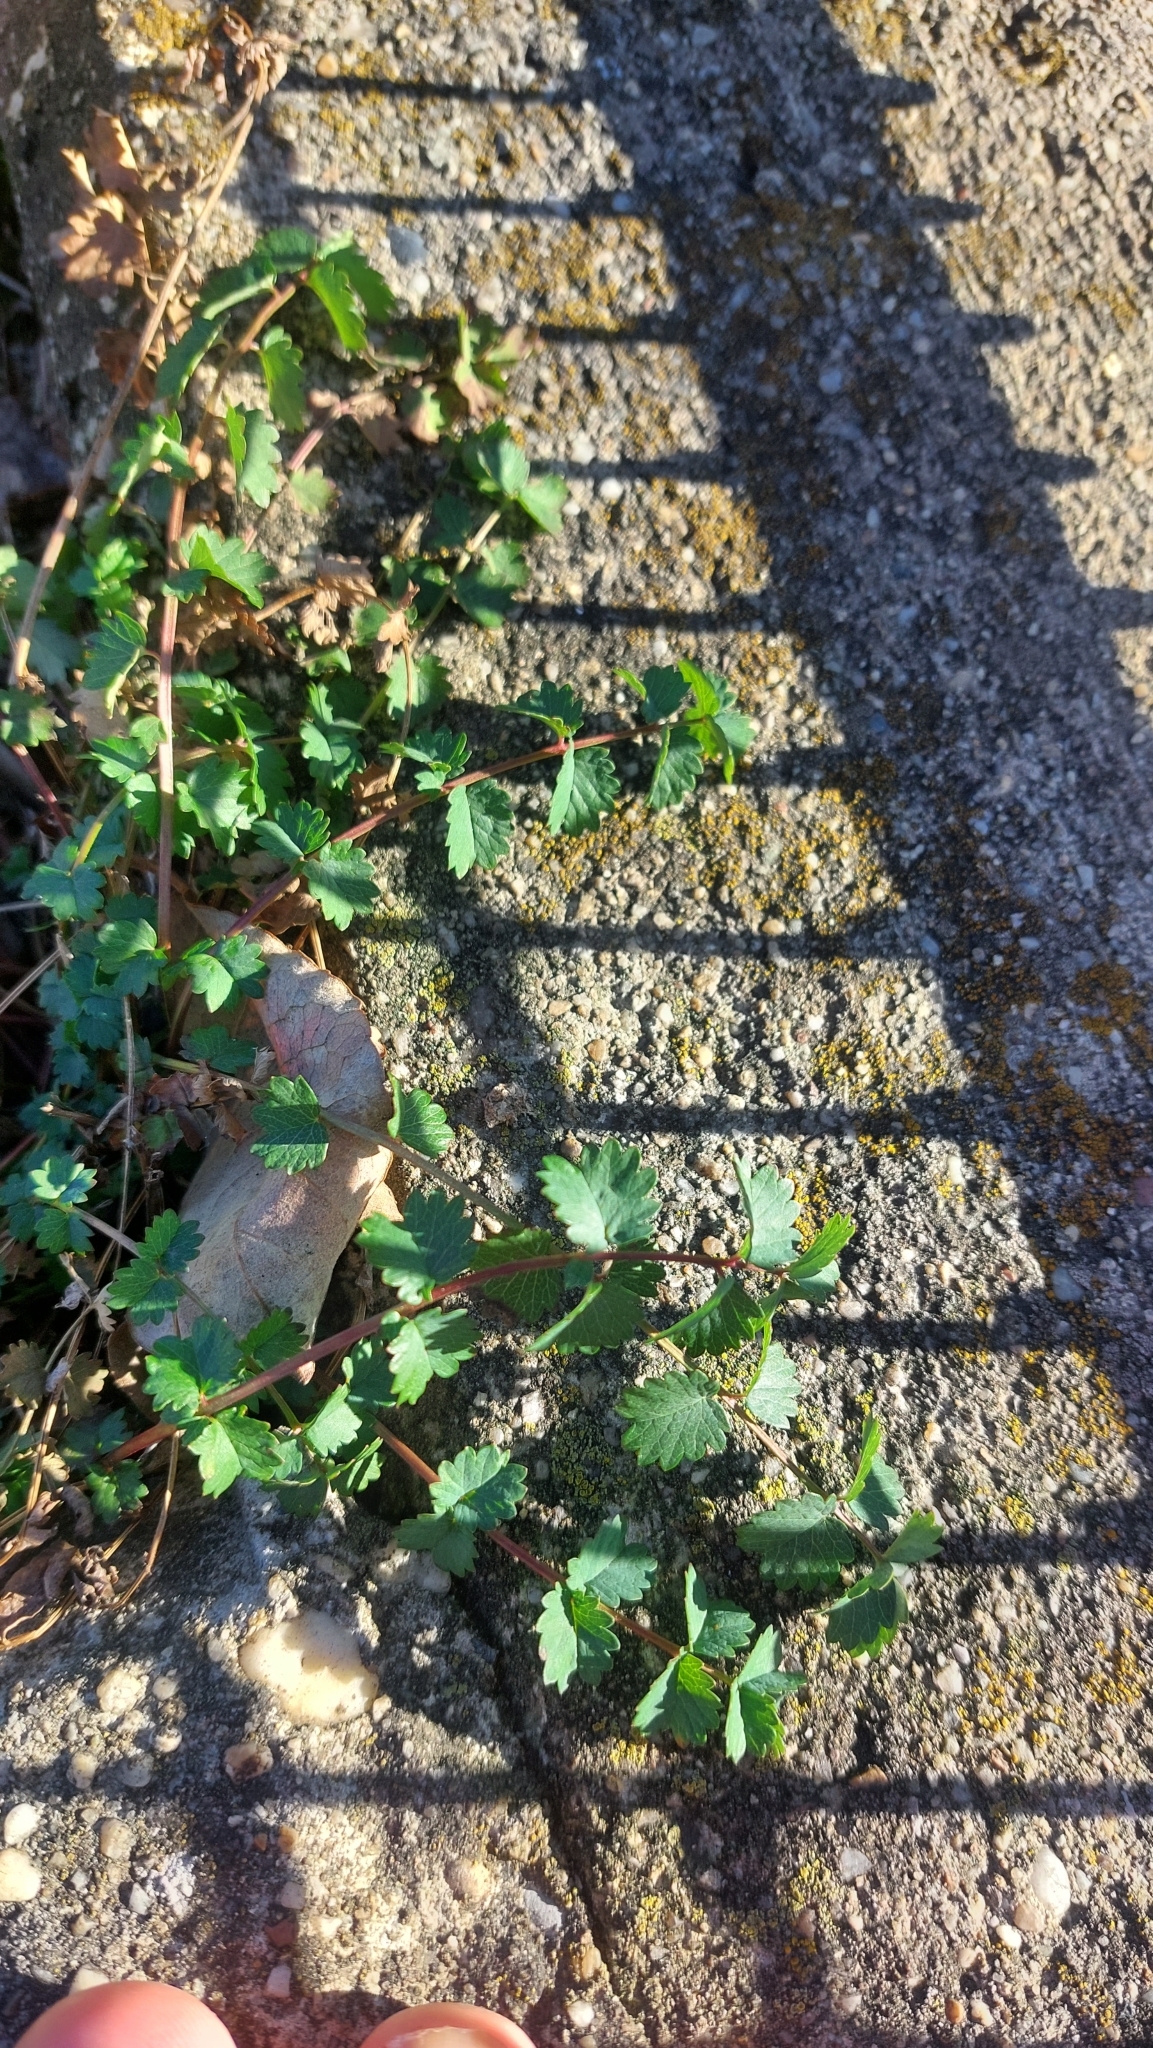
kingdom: Plantae
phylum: Tracheophyta
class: Magnoliopsida
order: Rosales
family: Rosaceae
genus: Poterium
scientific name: Poterium sanguisorba
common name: Salad burnet
